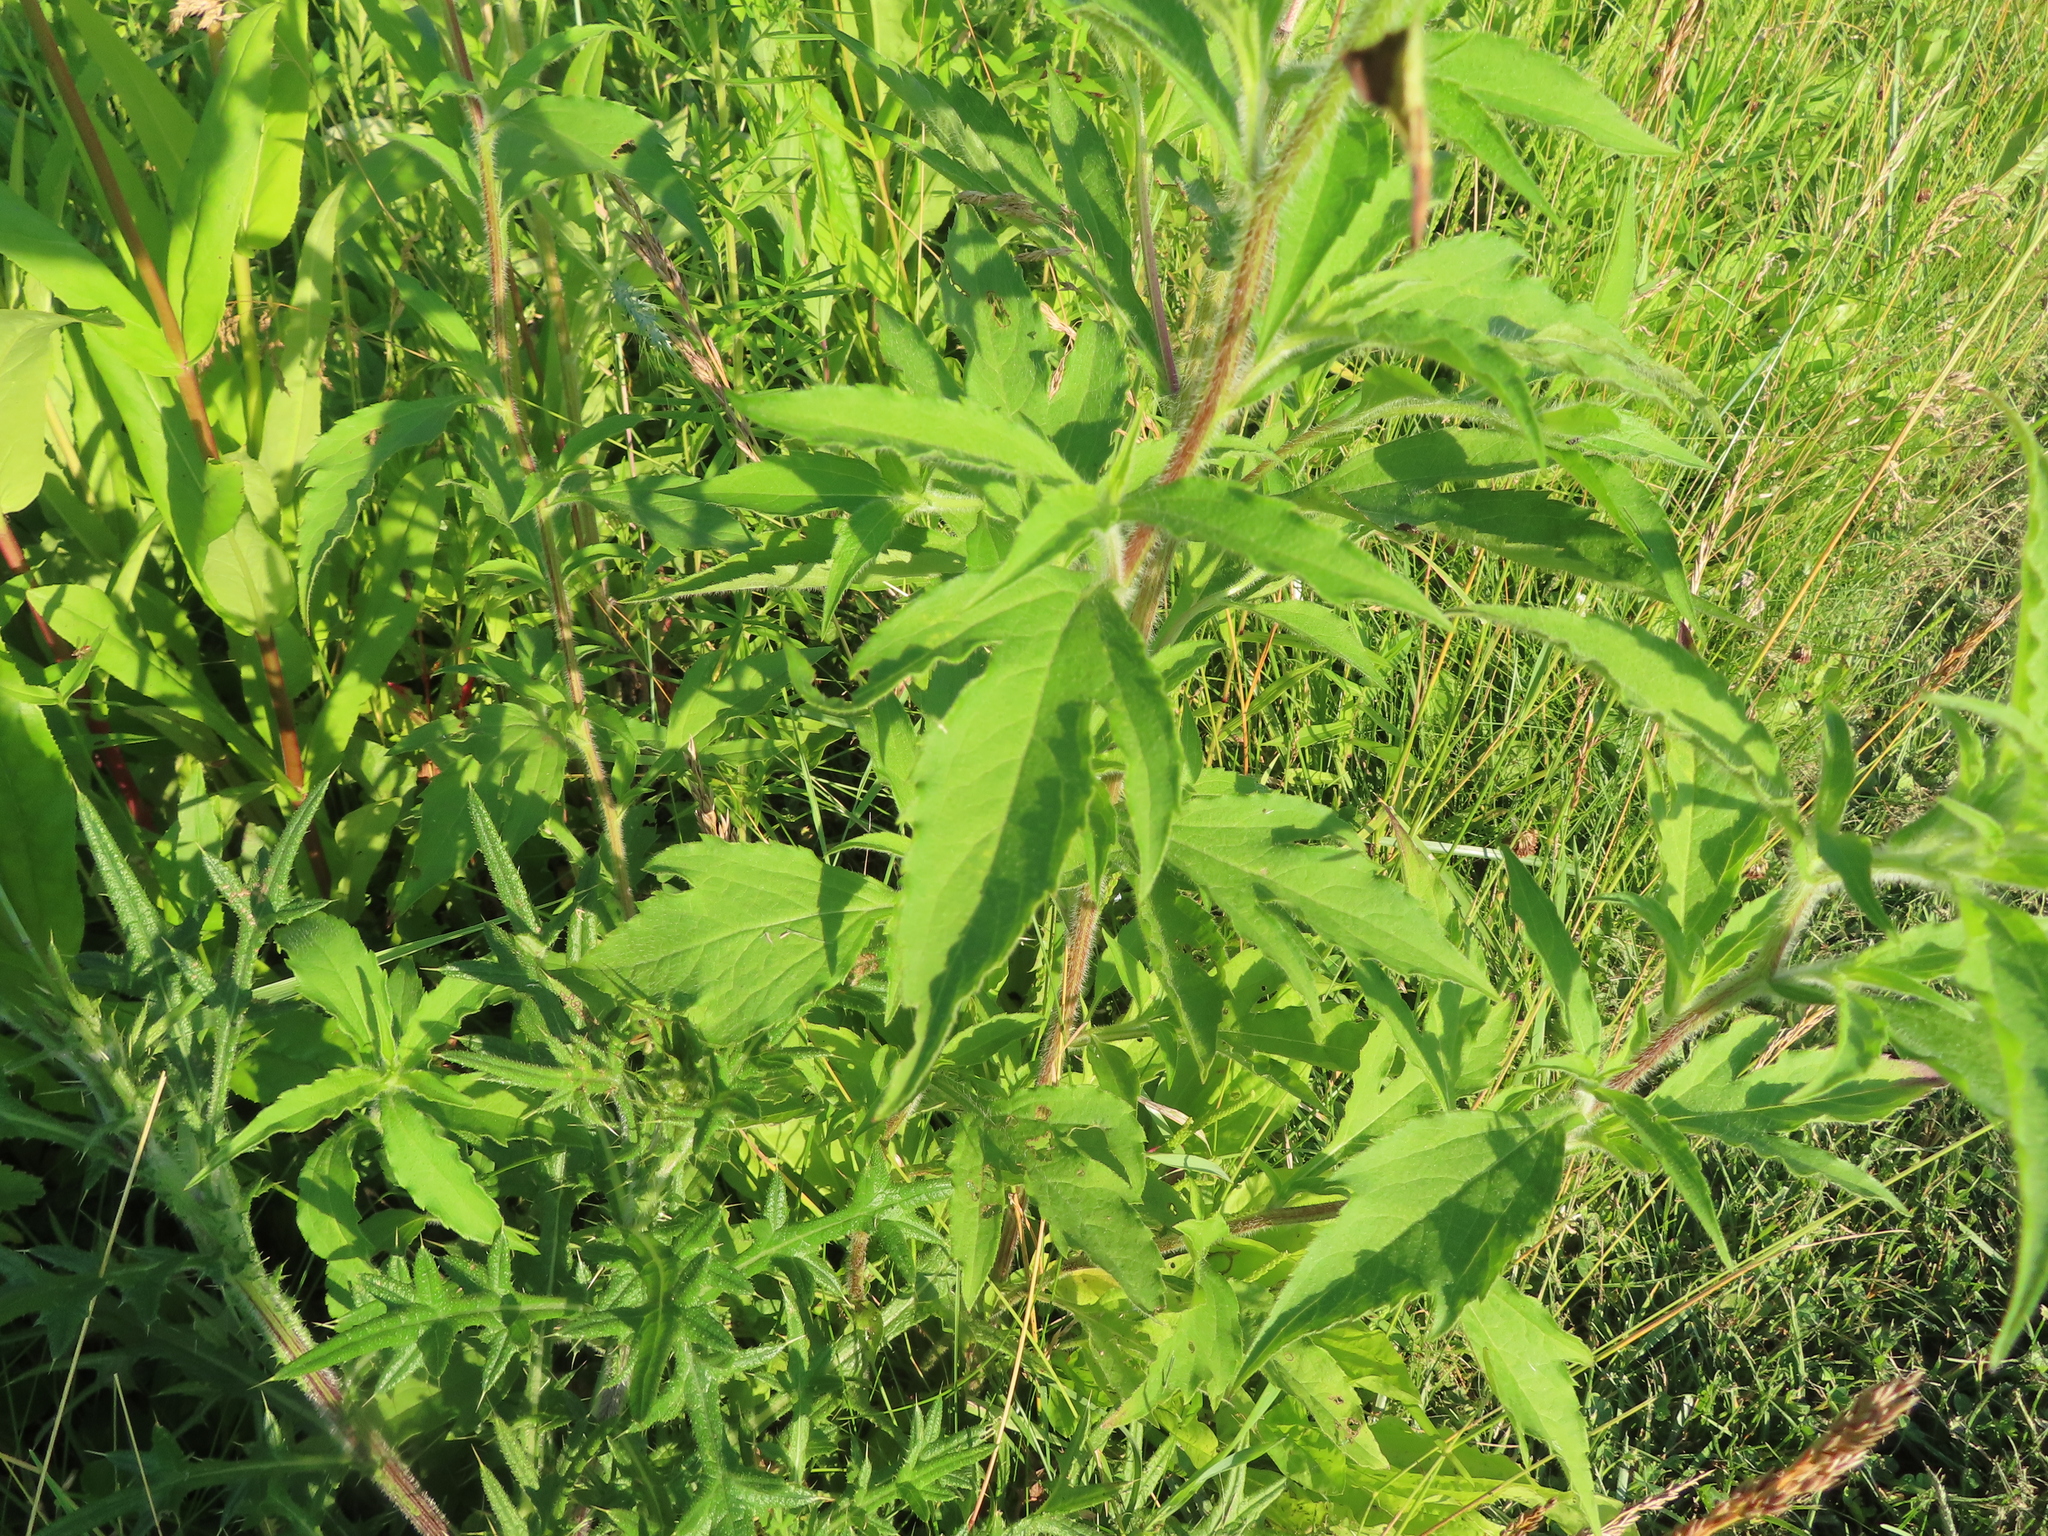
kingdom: Plantae
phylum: Tracheophyta
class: Magnoliopsida
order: Asterales
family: Asteraceae
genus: Ambrosia
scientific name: Ambrosia trifida
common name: Giant ragweed
